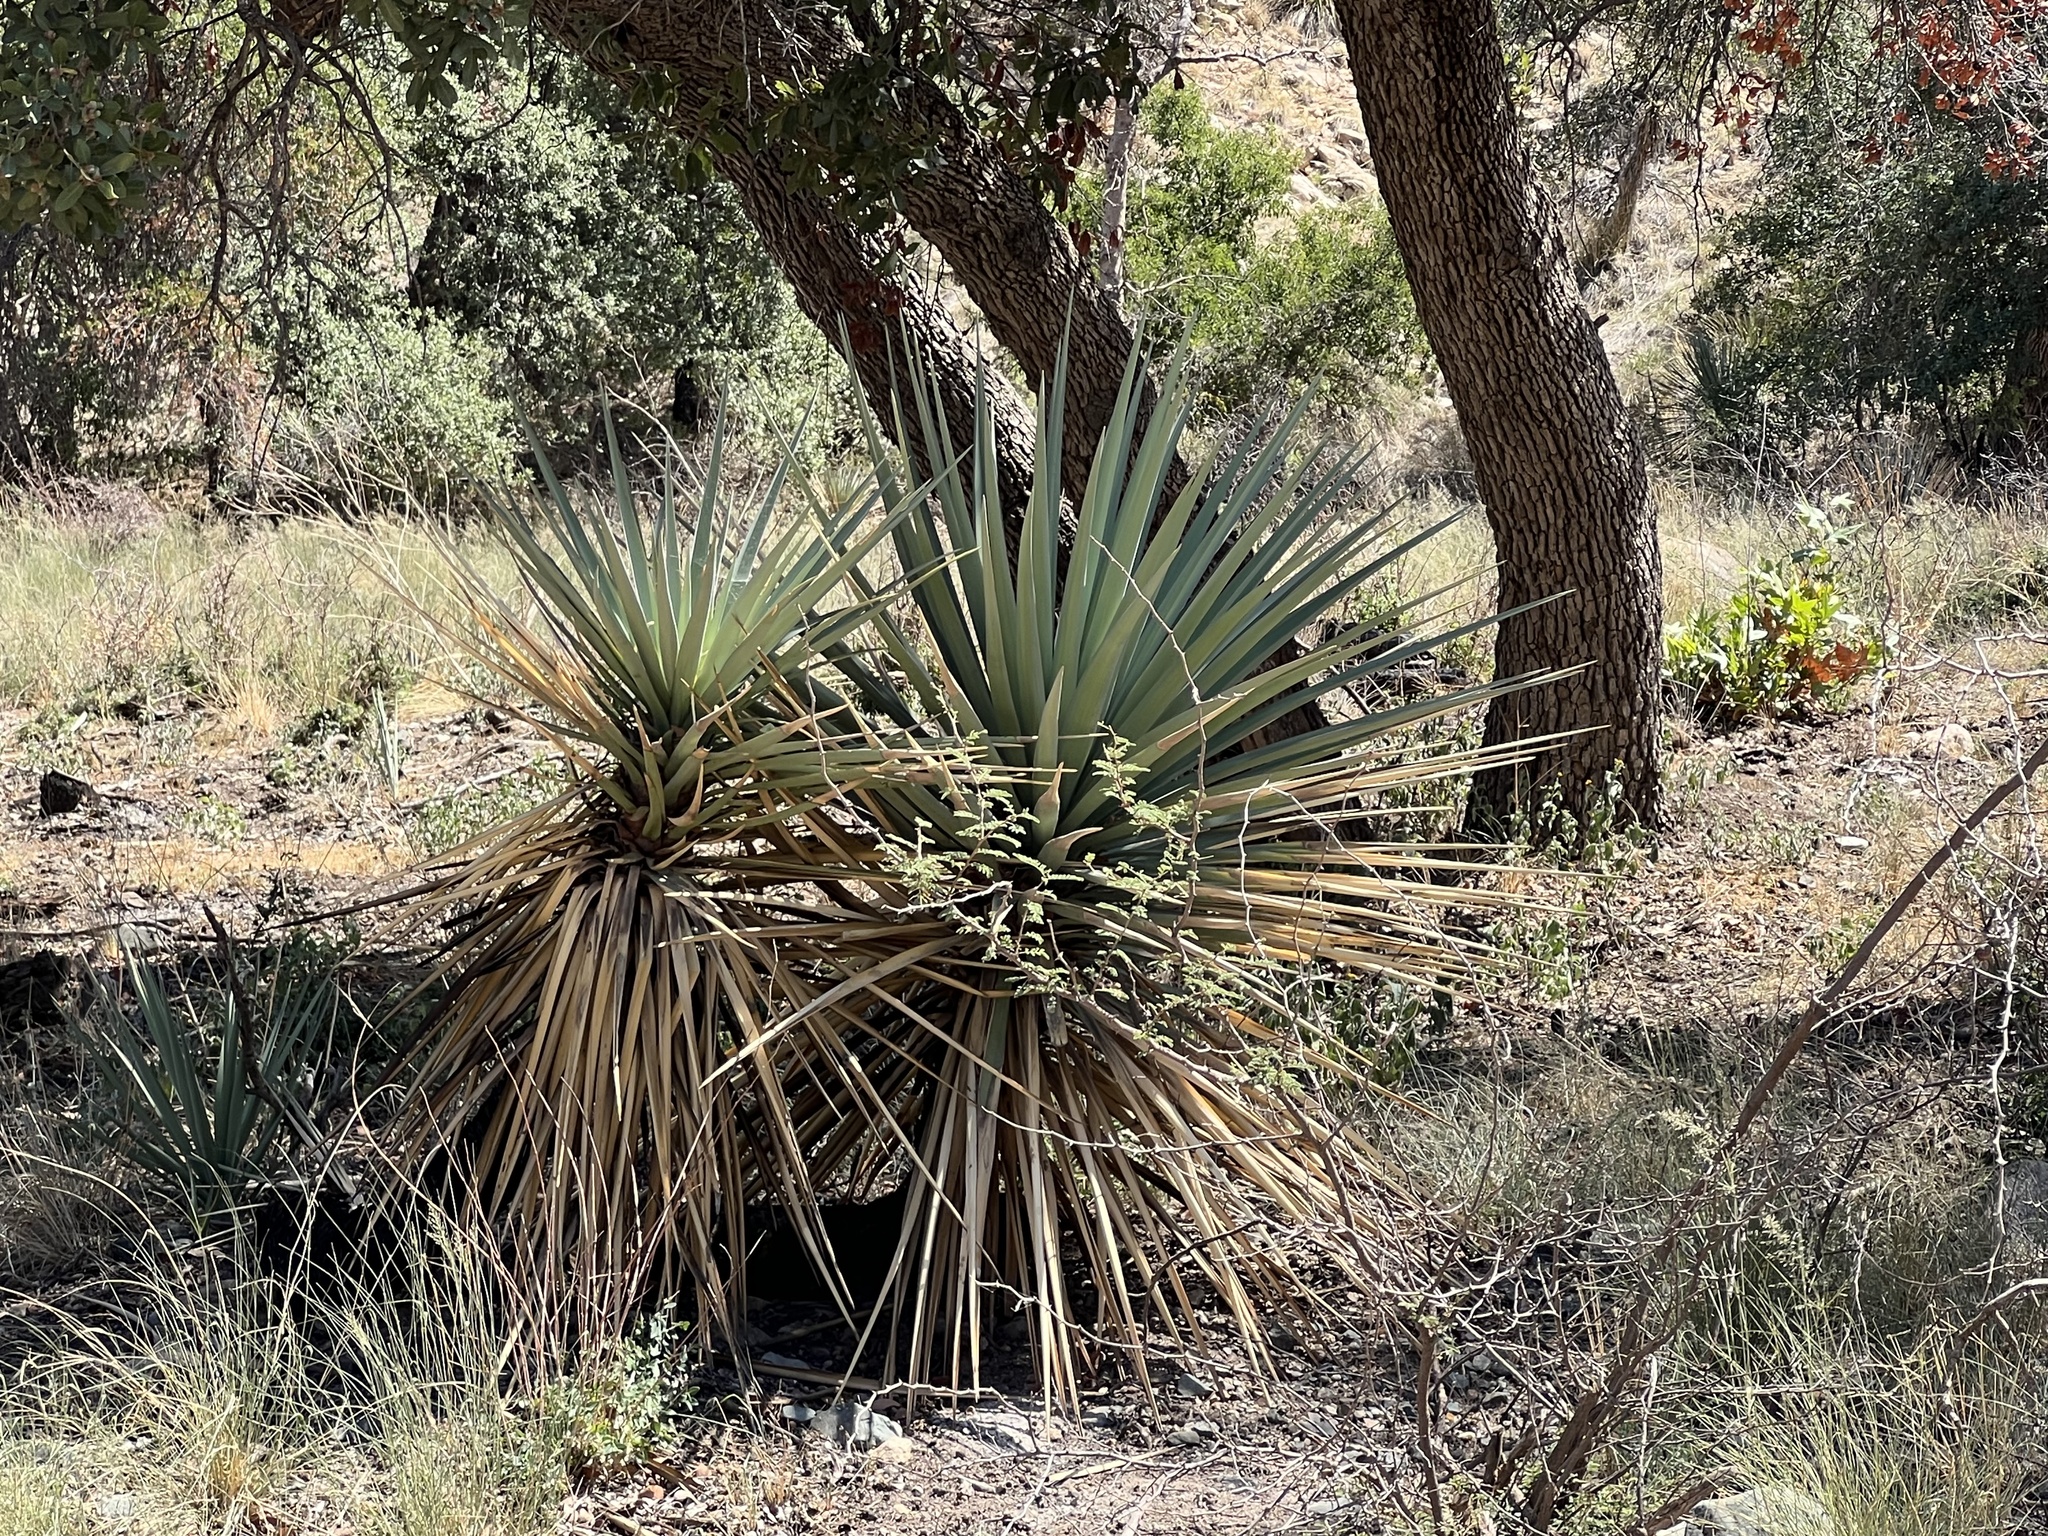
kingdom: Plantae
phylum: Tracheophyta
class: Liliopsida
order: Asparagales
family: Asparagaceae
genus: Yucca
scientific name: Yucca schottii
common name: Hoary yucca
